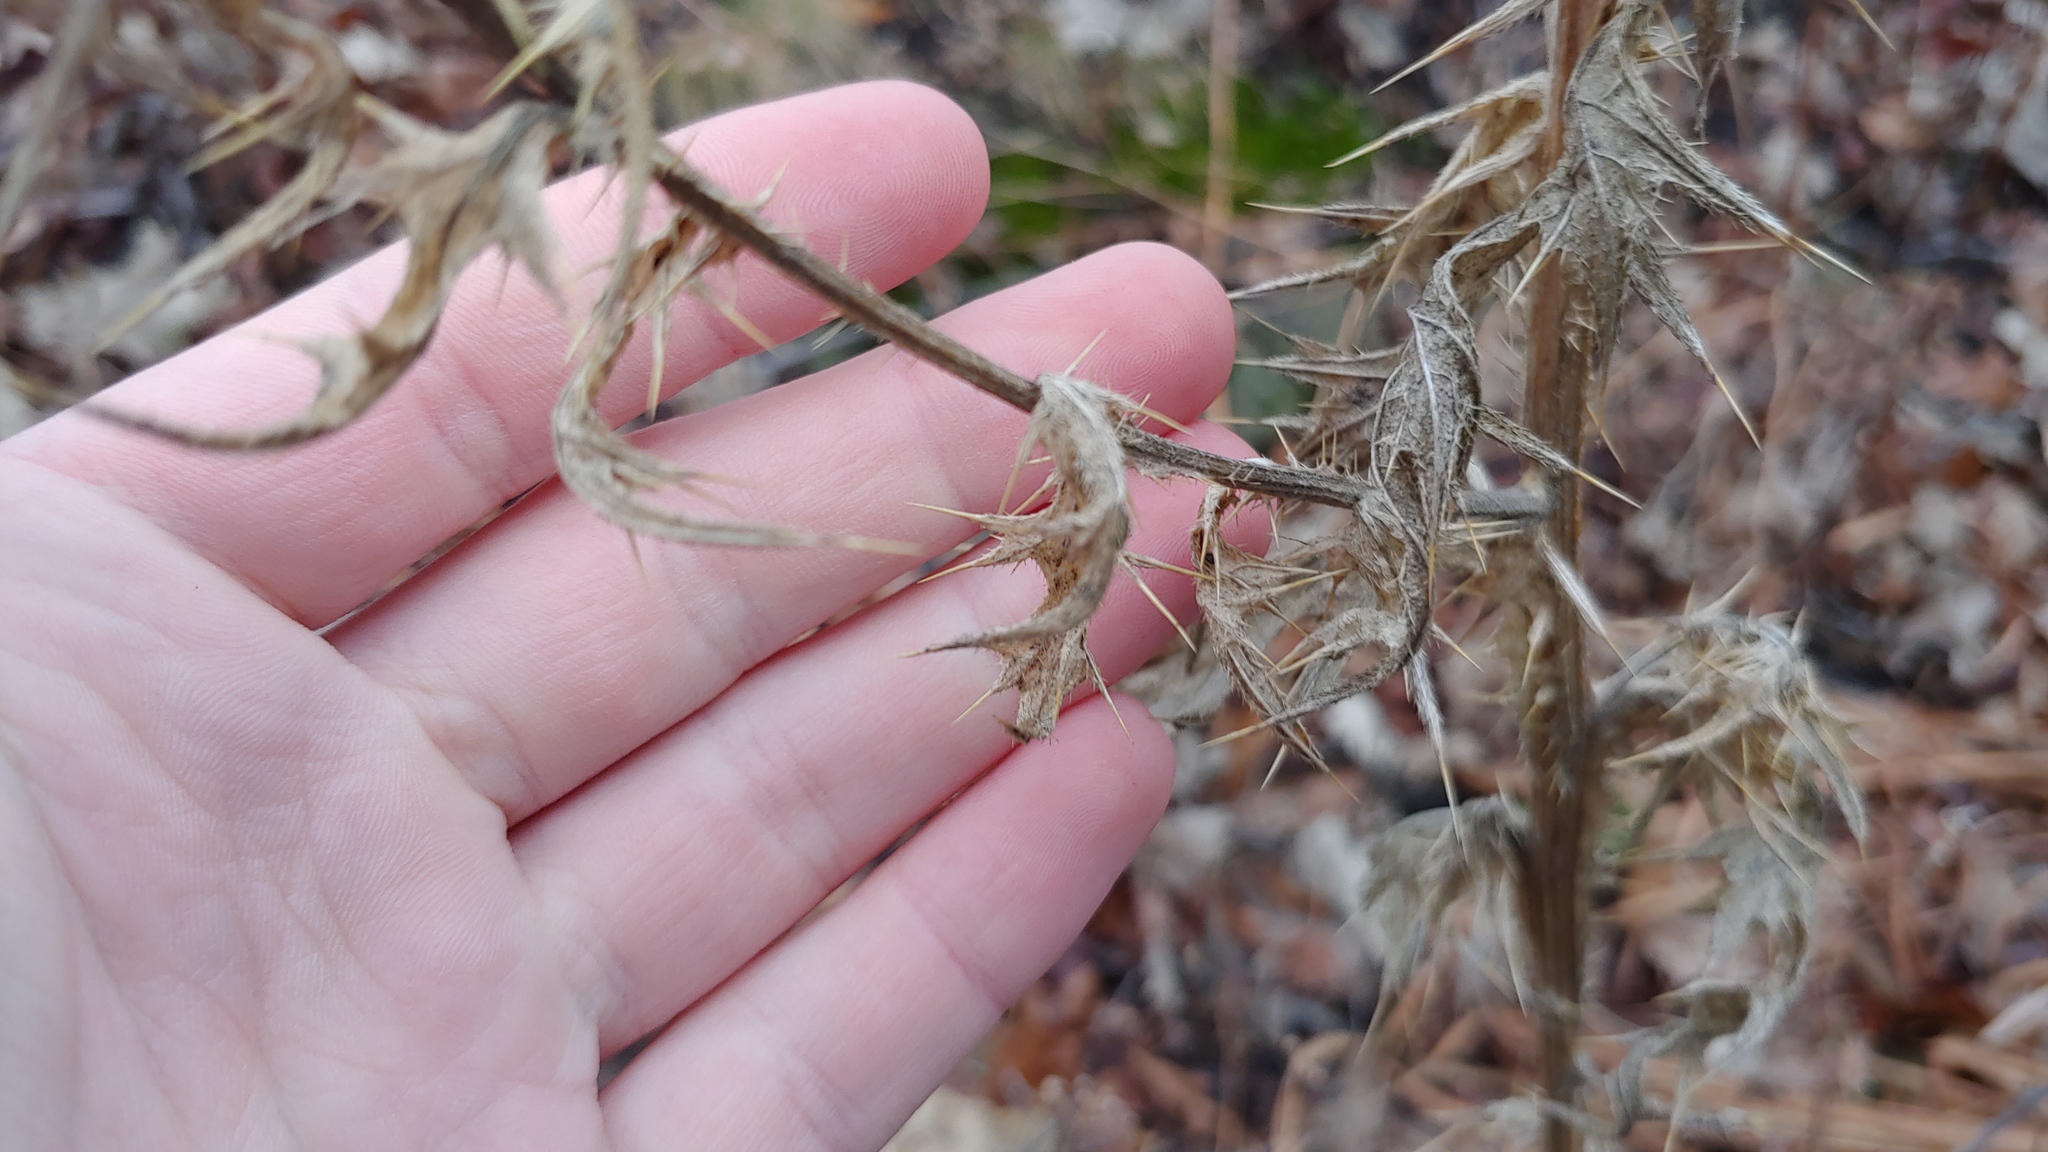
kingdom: Plantae
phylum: Tracheophyta
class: Magnoliopsida
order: Asterales
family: Asteraceae
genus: Cirsium
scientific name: Cirsium vulgare
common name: Bull thistle
